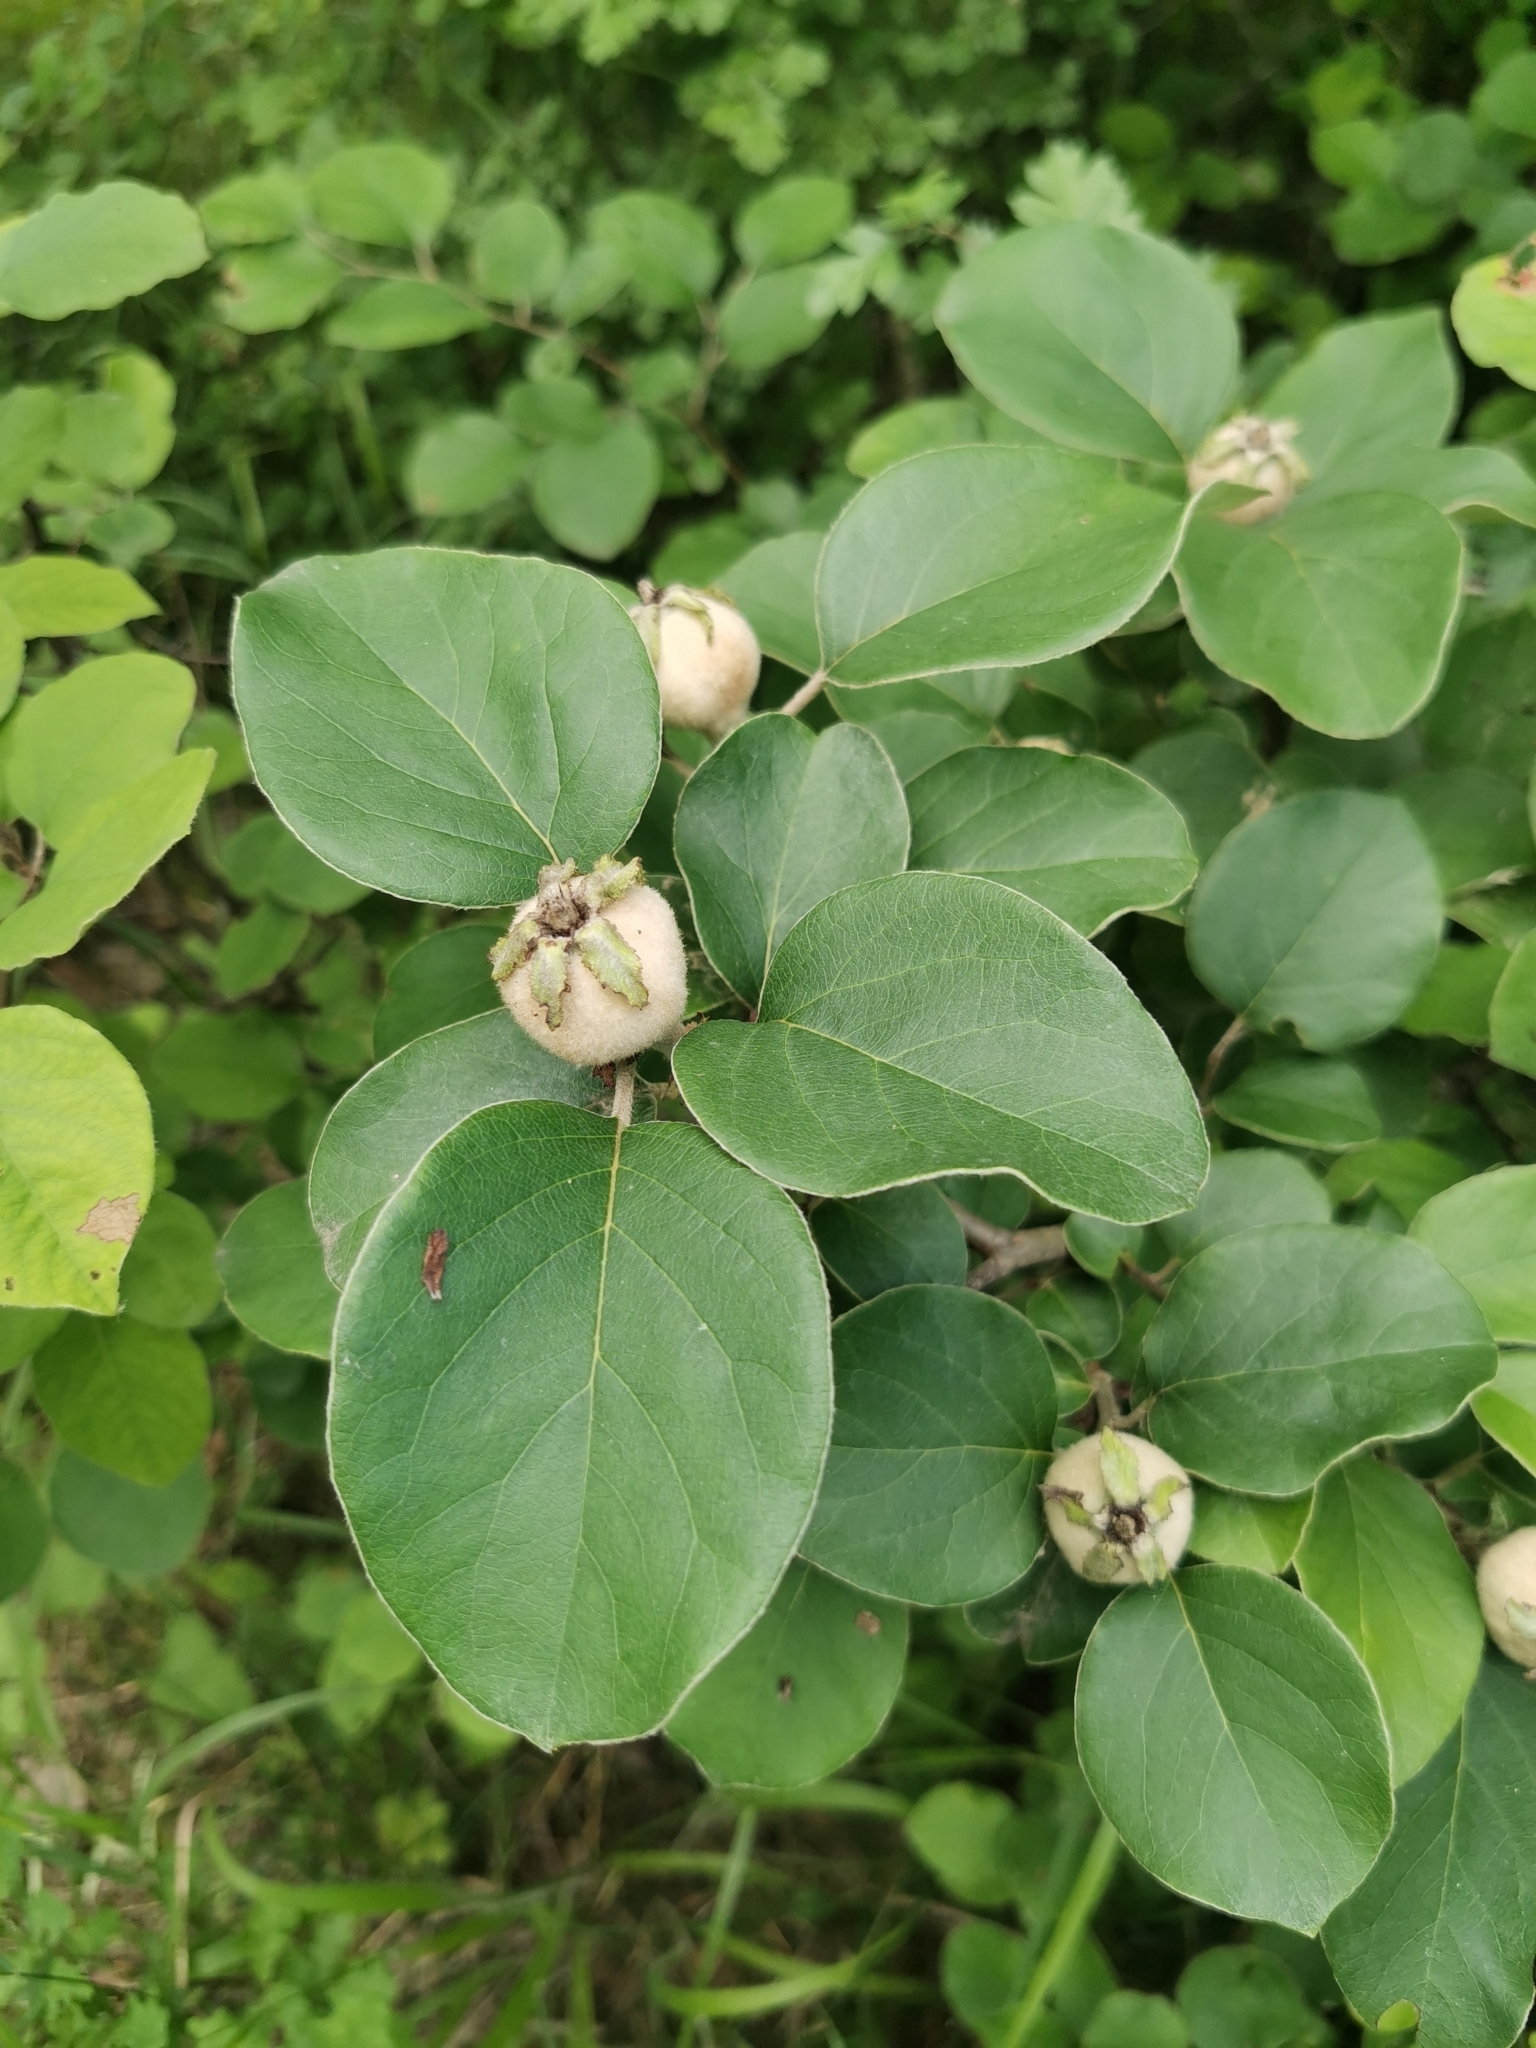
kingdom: Plantae
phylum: Tracheophyta
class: Magnoliopsida
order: Rosales
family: Rosaceae
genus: Cydonia
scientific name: Cydonia oblonga
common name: Quince
